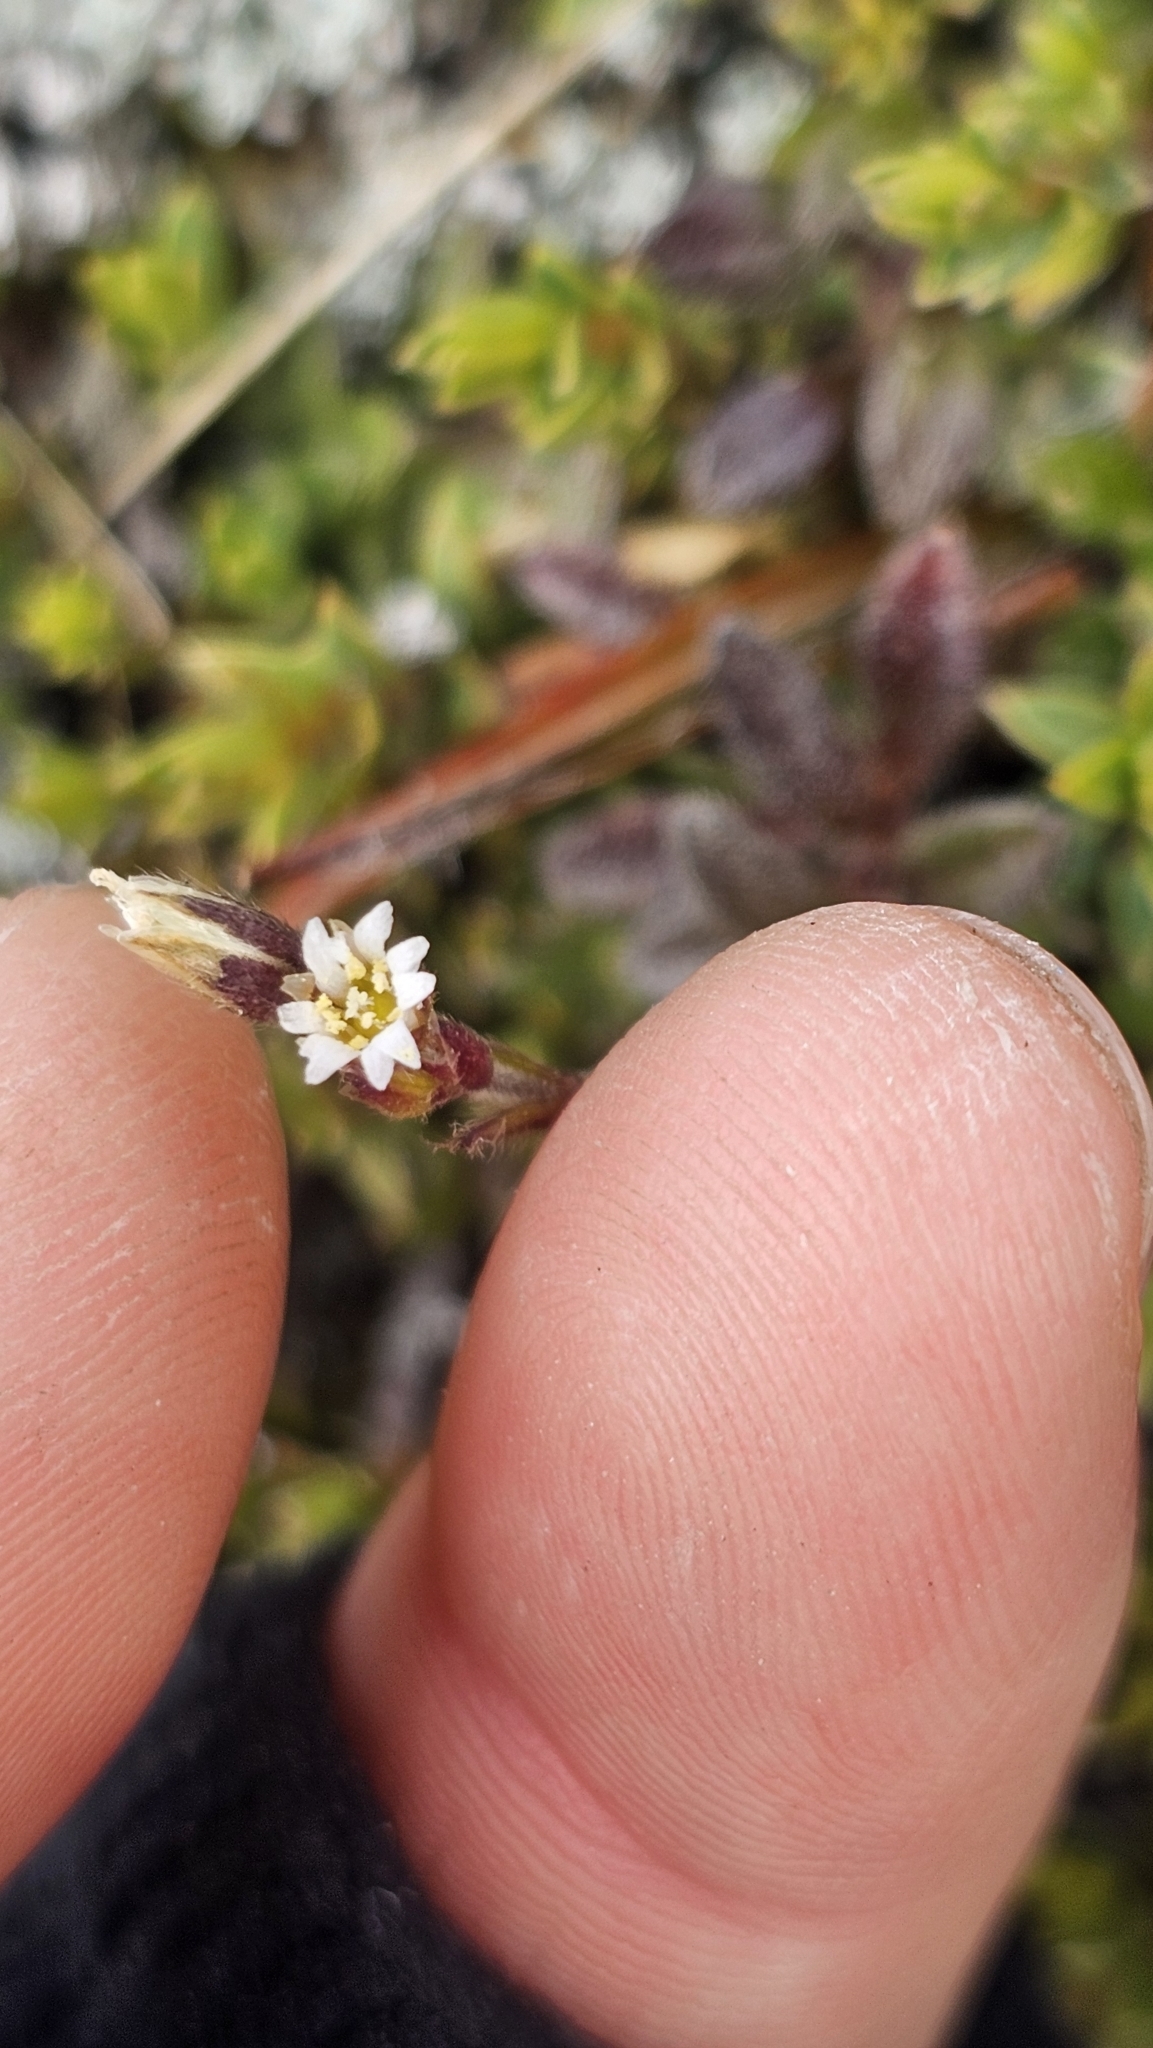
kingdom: Plantae
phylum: Tracheophyta
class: Magnoliopsida
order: Caryophyllales
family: Caryophyllaceae
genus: Cerastium
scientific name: Cerastium fontanum
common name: Common mouse-ear
